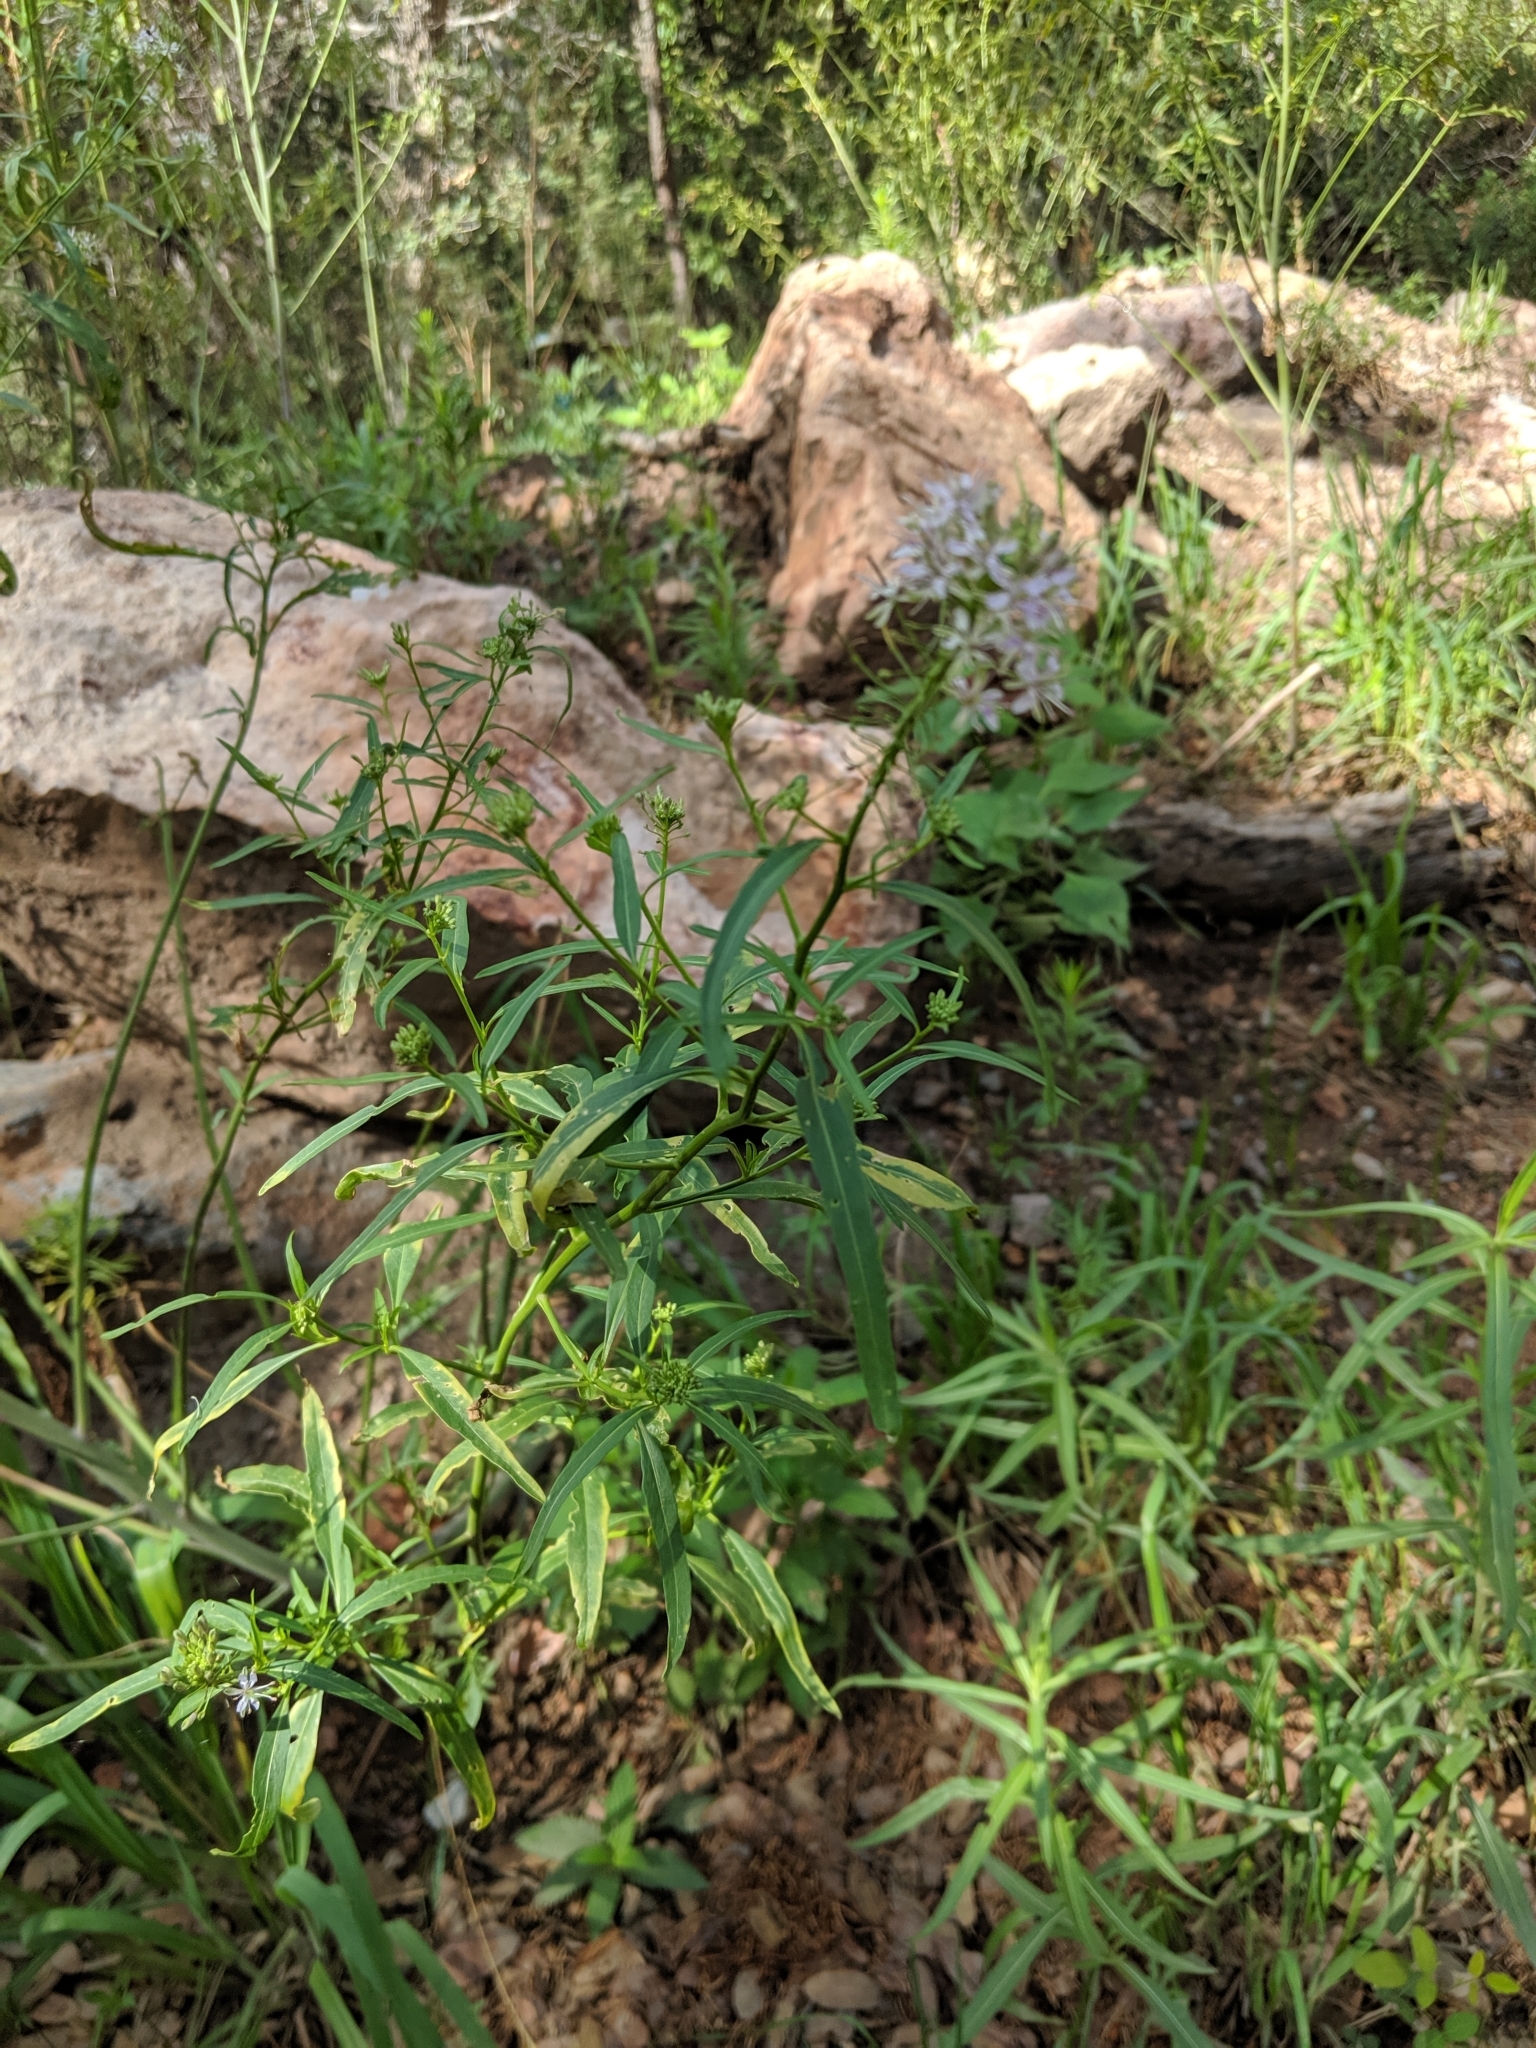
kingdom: Plantae
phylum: Tracheophyta
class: Magnoliopsida
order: Brassicales
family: Brassicaceae
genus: Thelypodium
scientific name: Thelypodium wrightii
